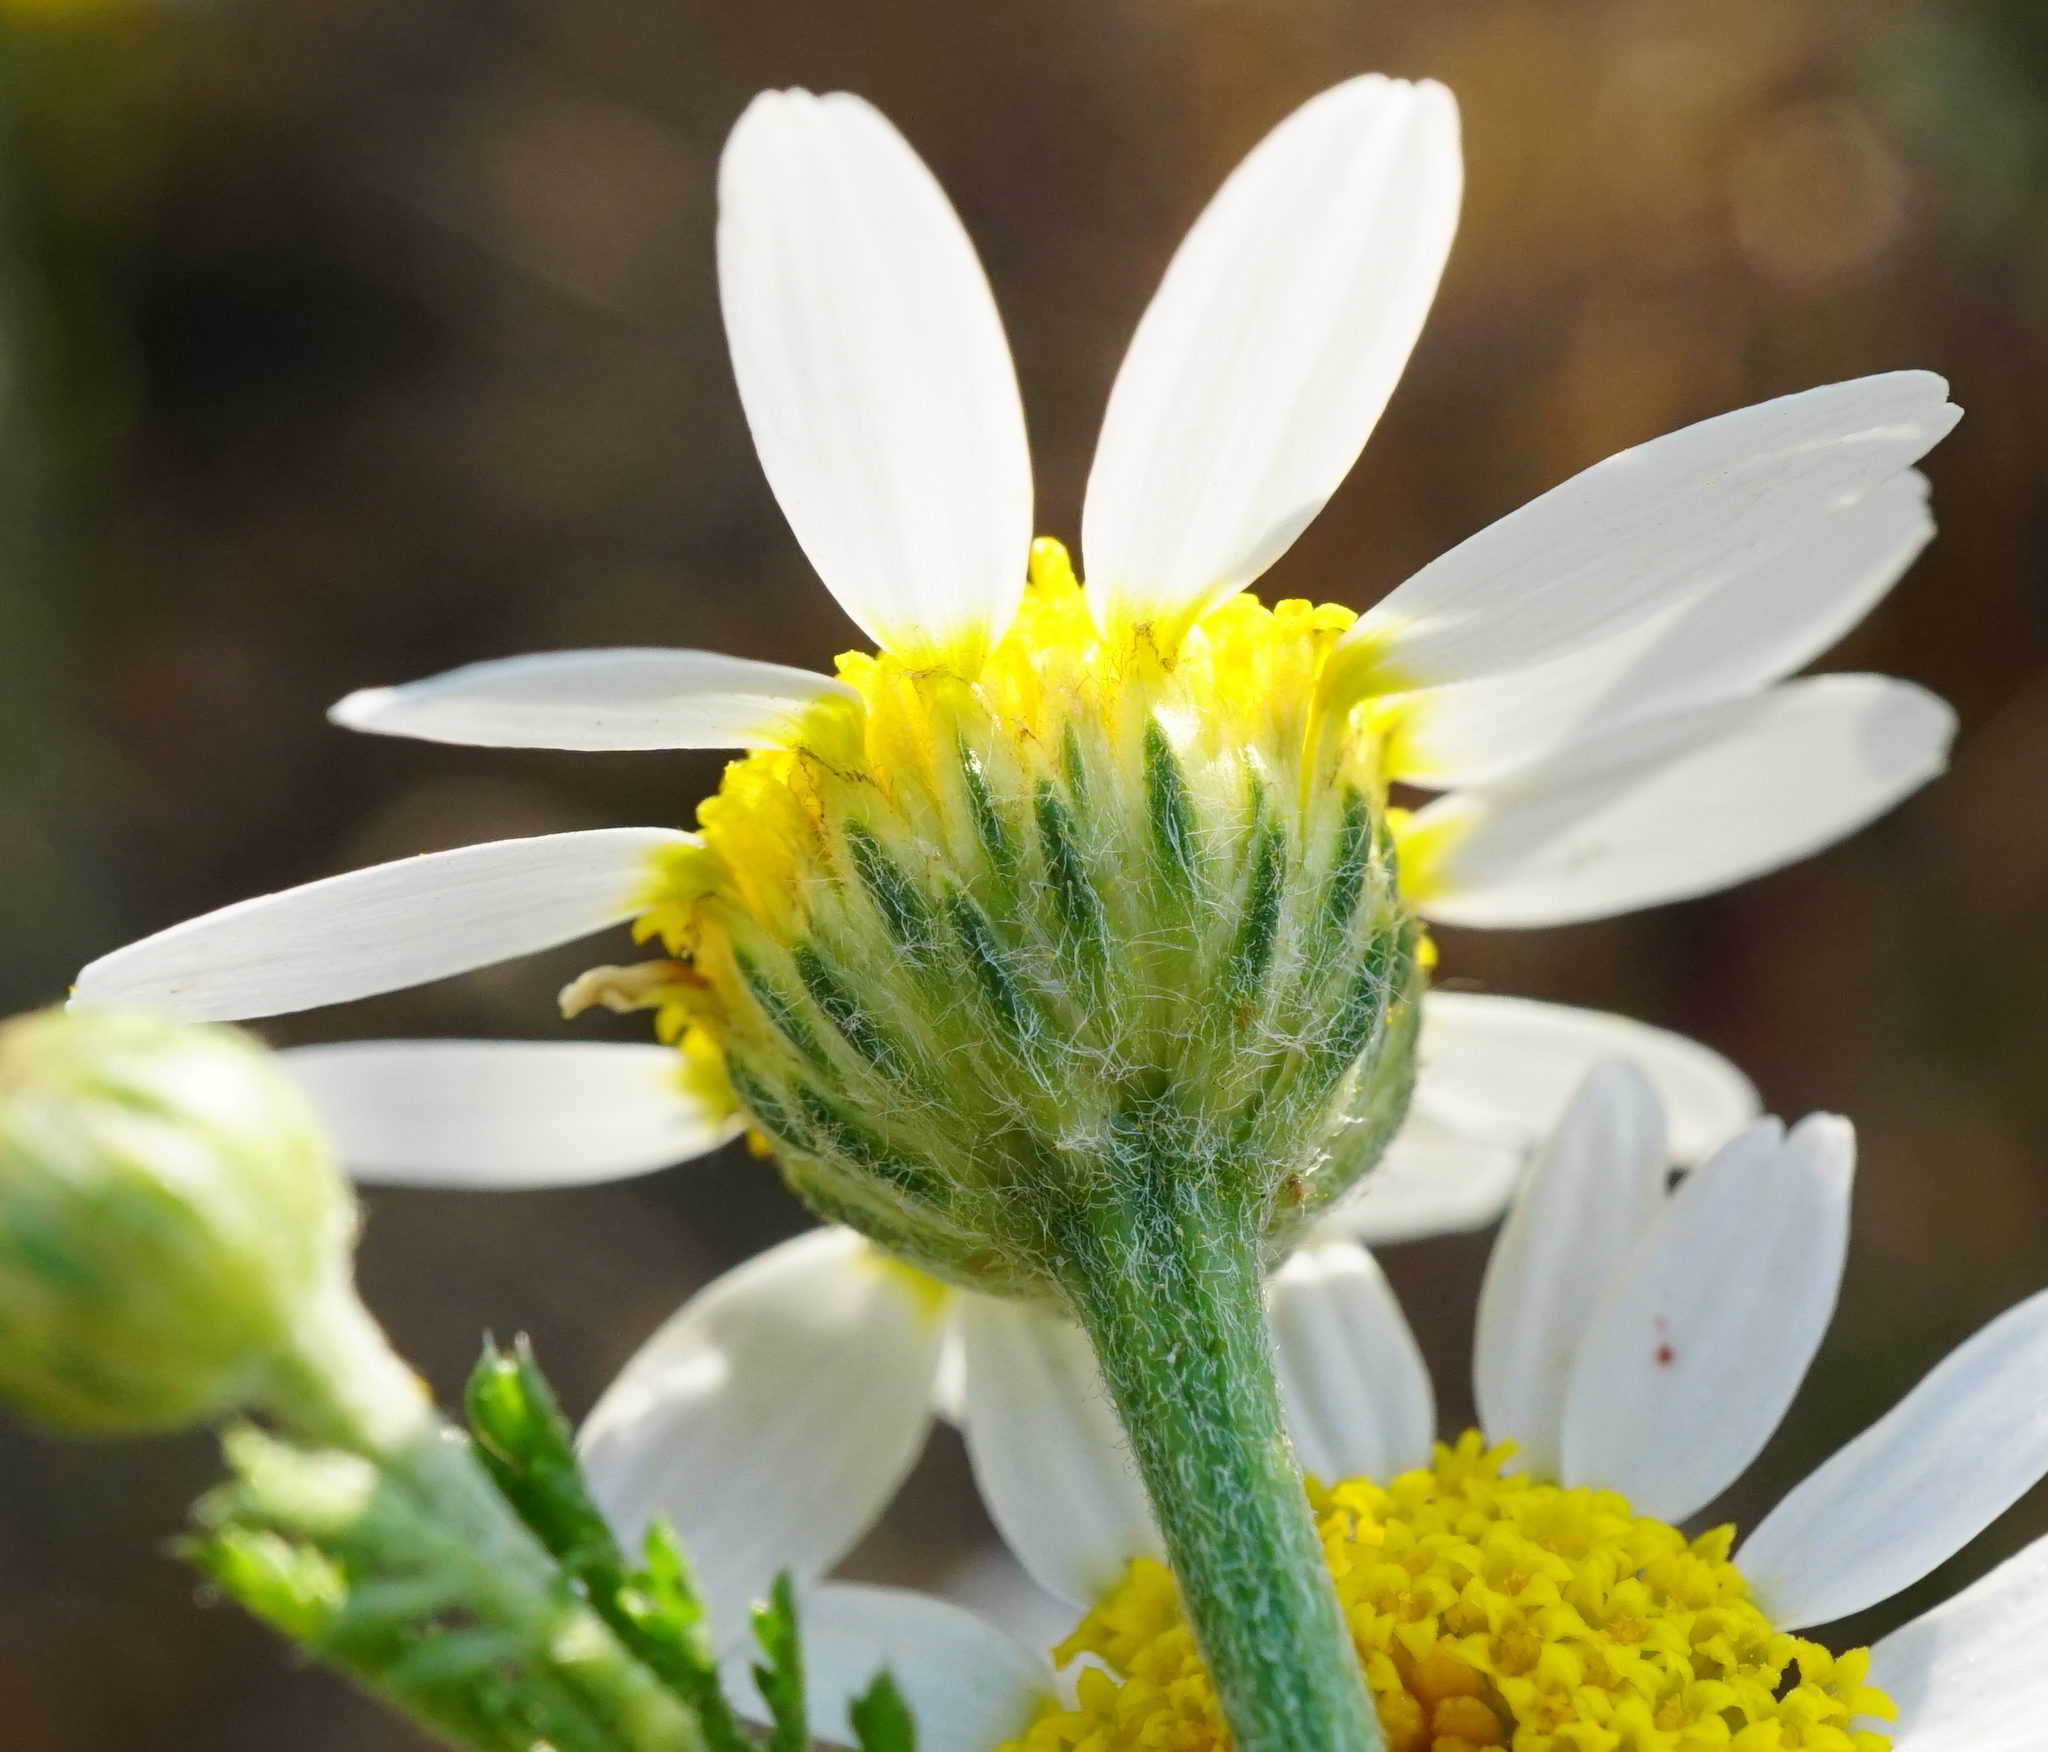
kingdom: Plantae
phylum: Tracheophyta
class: Magnoliopsida
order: Asterales
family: Asteraceae
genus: Cota
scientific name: Cota austriaca
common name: Austrian chamomile
